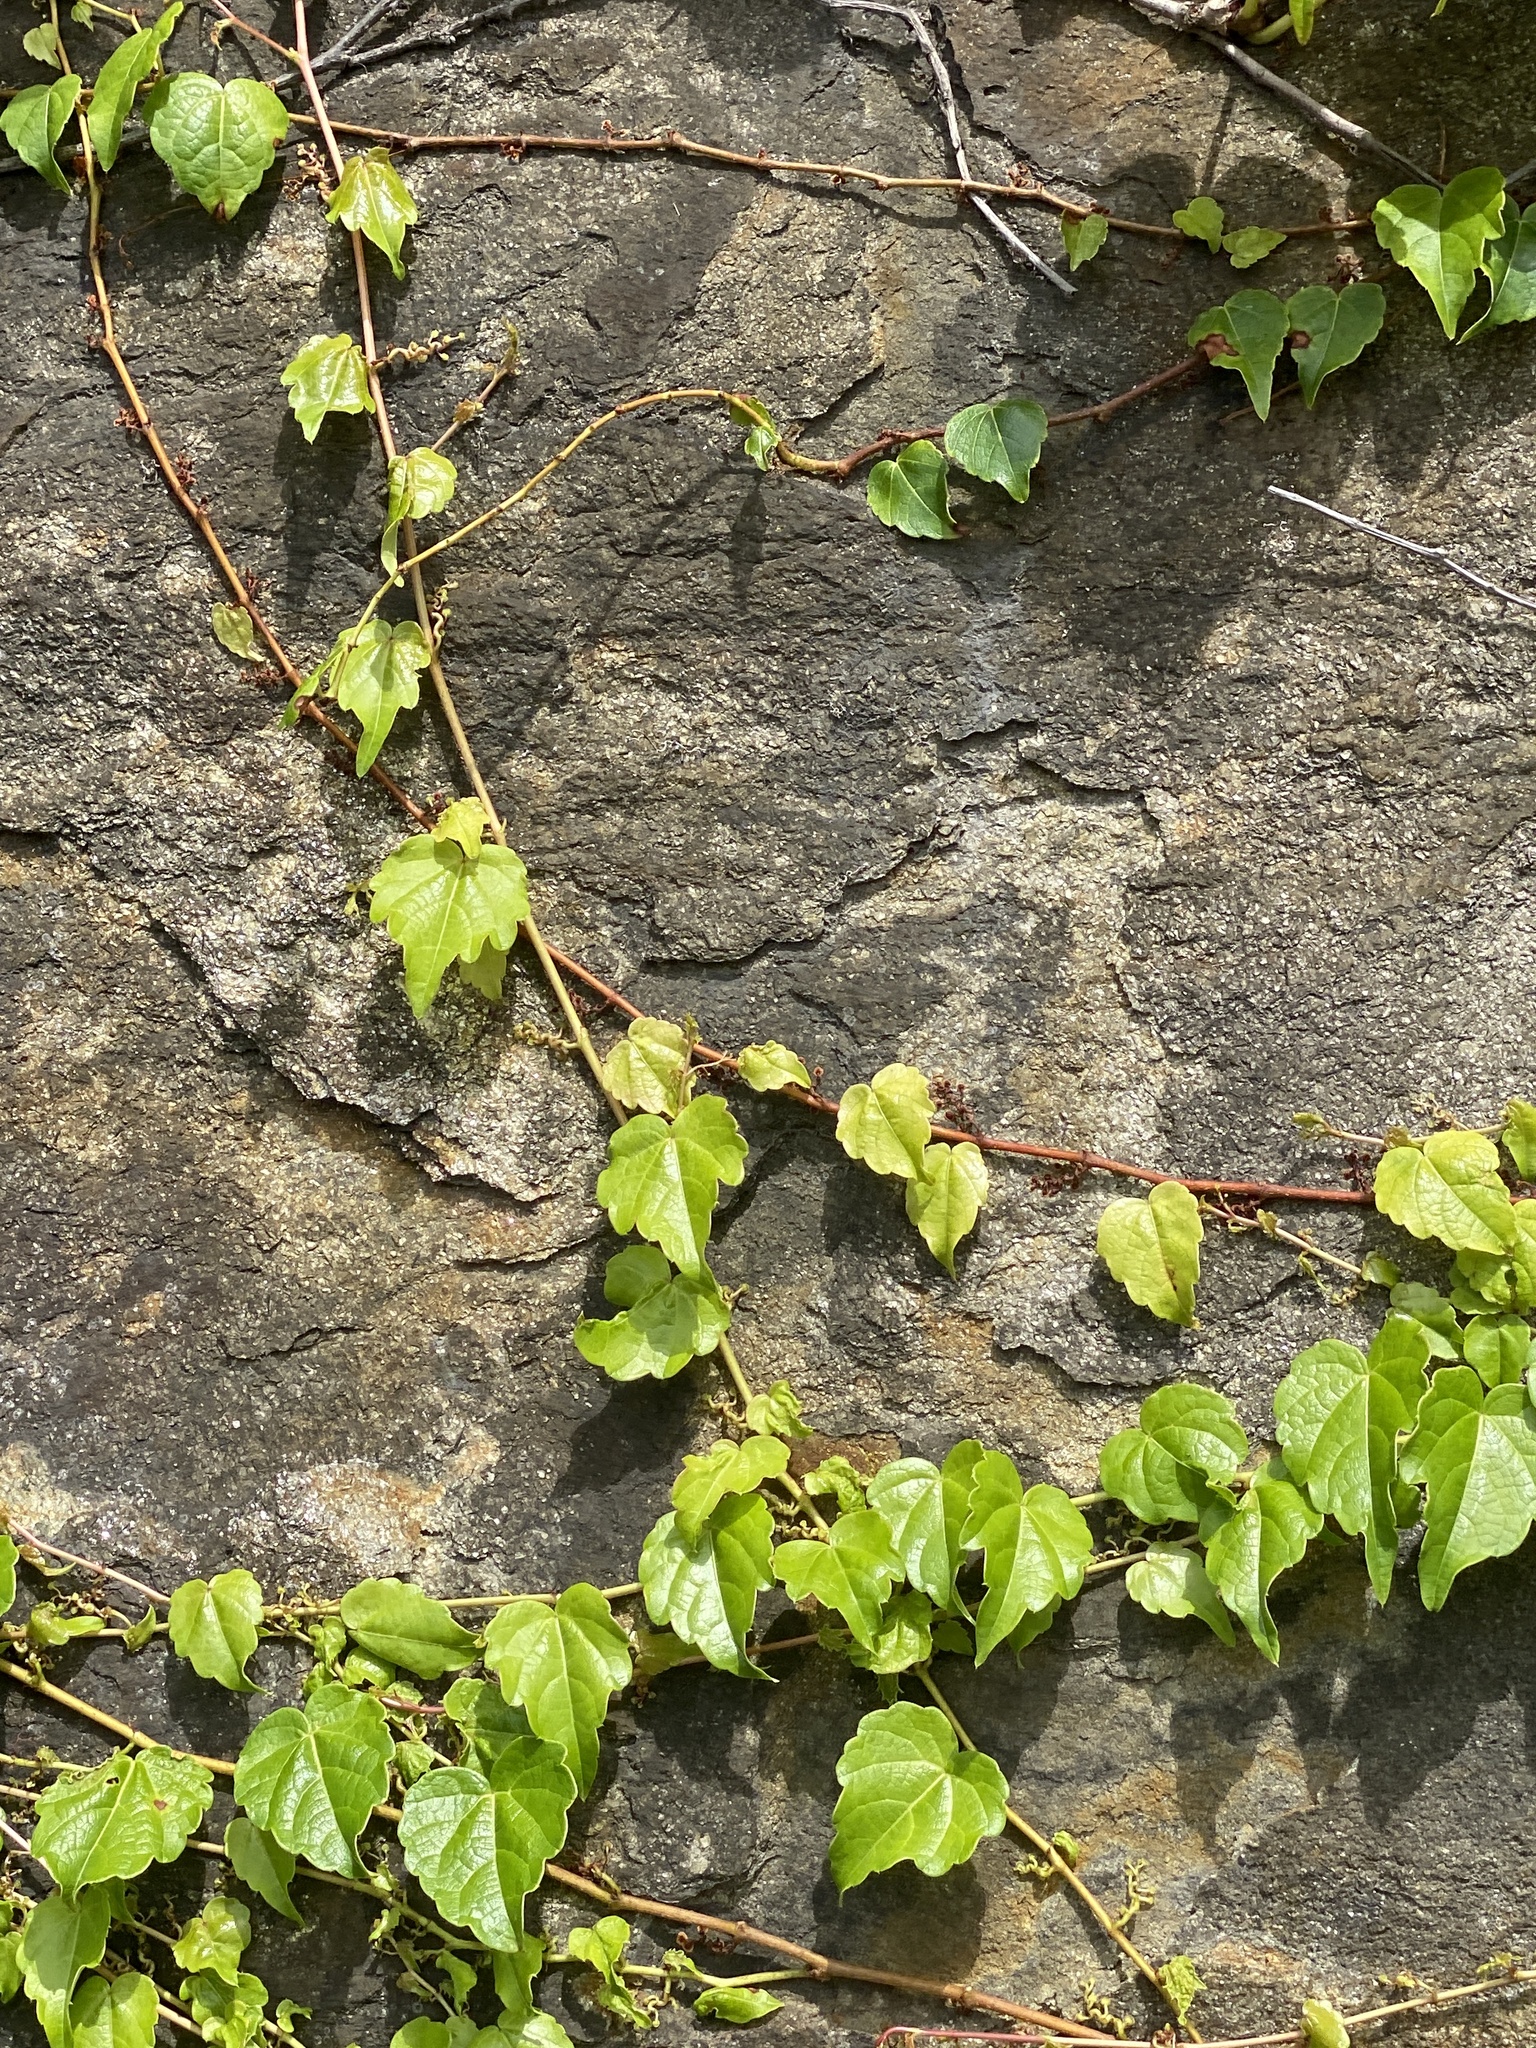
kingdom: Plantae
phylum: Tracheophyta
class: Magnoliopsida
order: Vitales
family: Vitaceae
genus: Parthenocissus
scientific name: Parthenocissus tricuspidata
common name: Boston ivy
